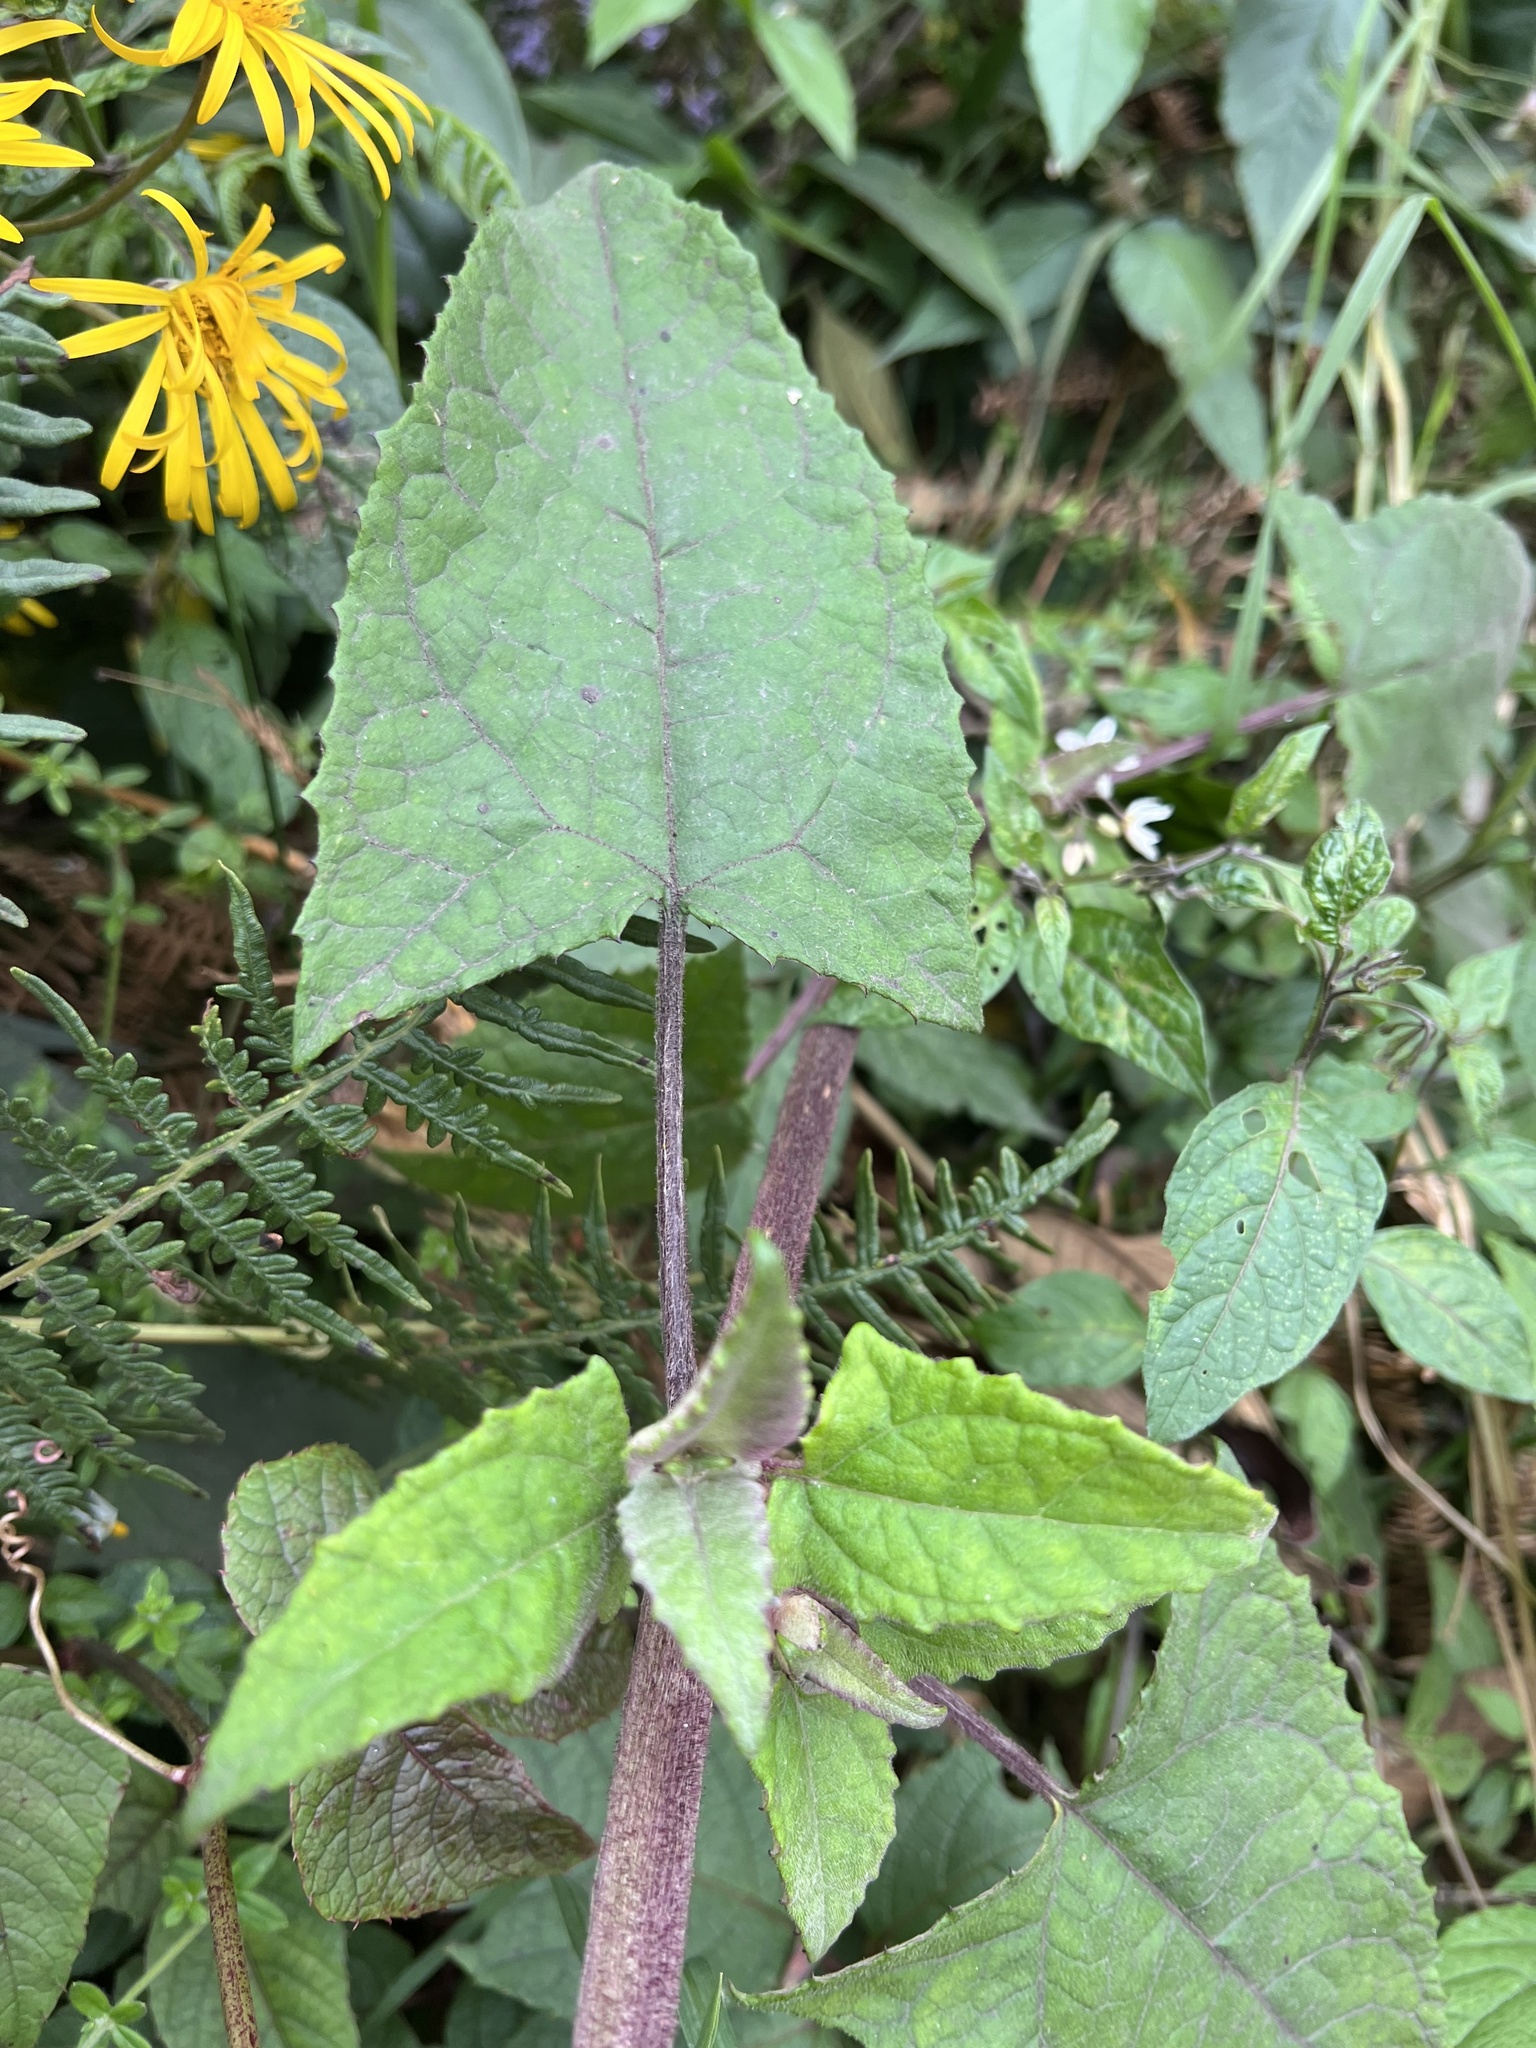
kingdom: Plantae
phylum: Tracheophyta
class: Magnoliopsida
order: Asterales
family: Asteraceae
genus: Munnozia
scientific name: Munnozia senecionidis
